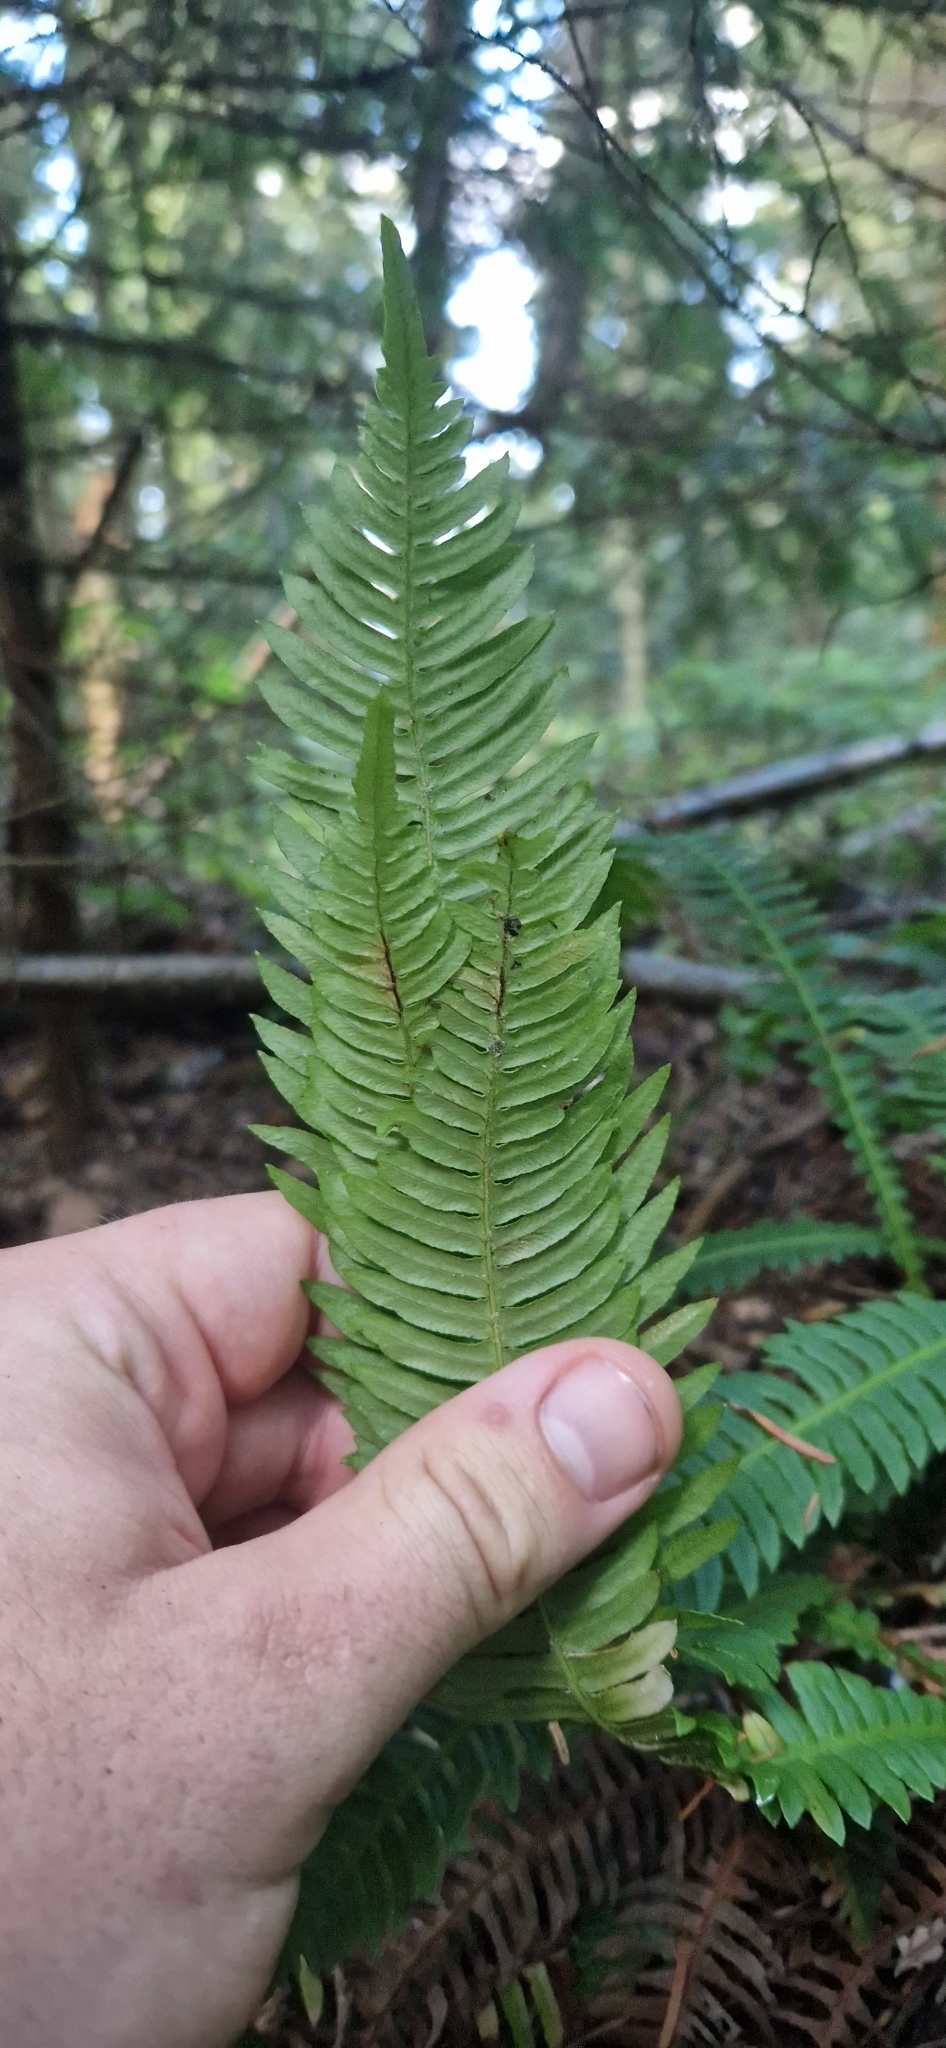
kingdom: Plantae
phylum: Tracheophyta
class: Polypodiopsida
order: Polypodiales
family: Blechnaceae
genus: Struthiopteris
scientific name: Struthiopteris spicant
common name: Deer fern
